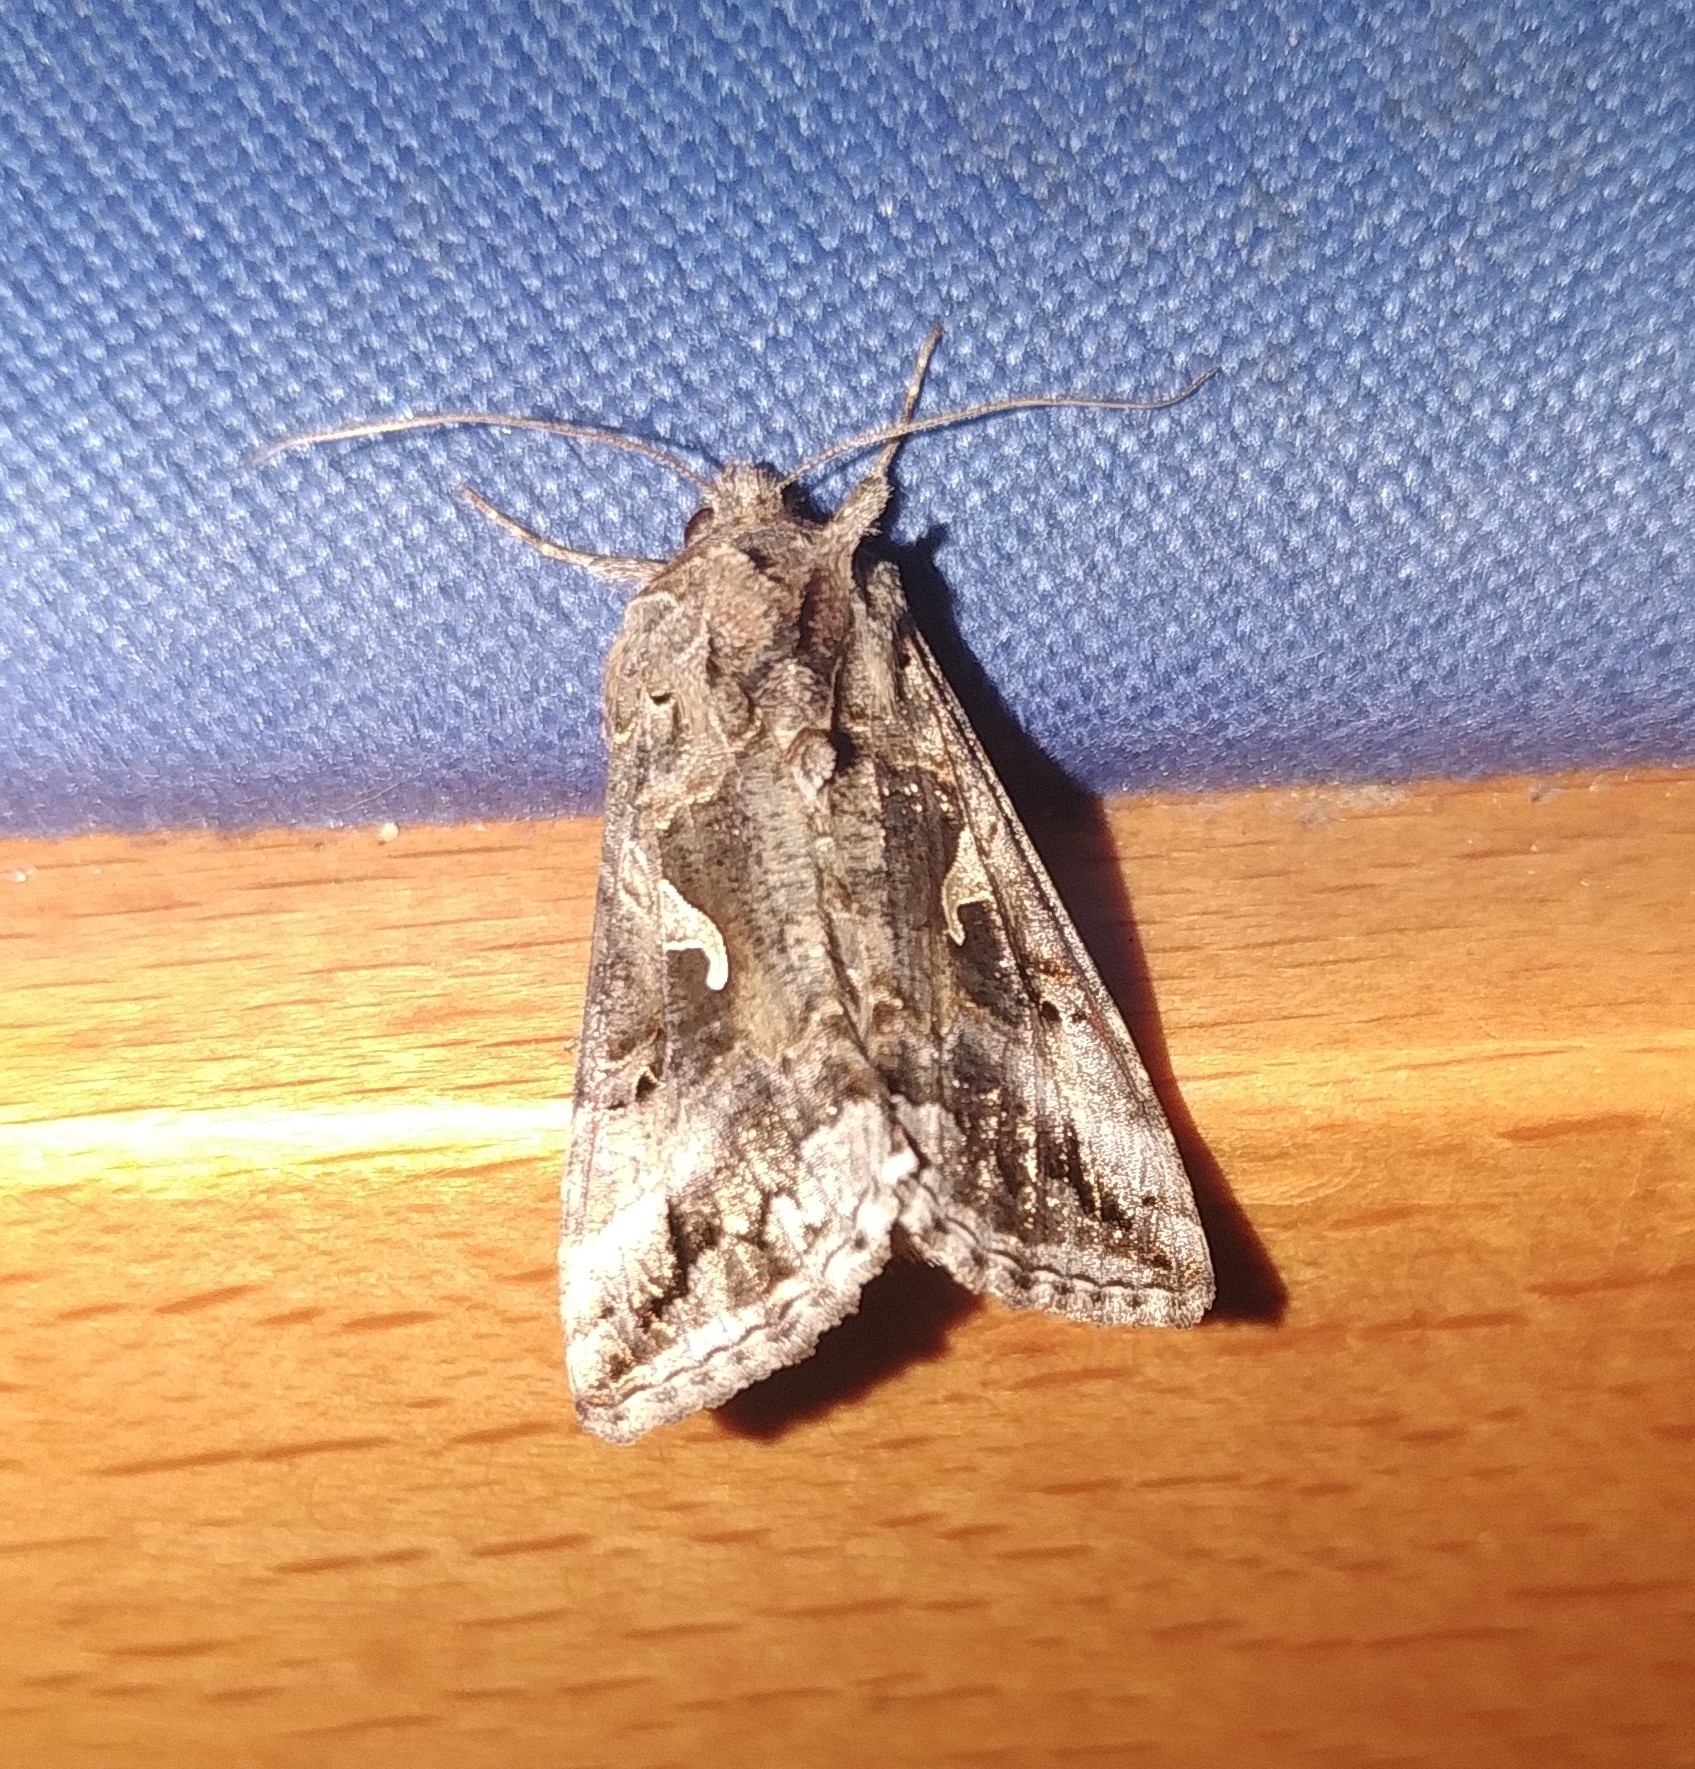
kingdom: Animalia
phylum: Arthropoda
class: Insecta
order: Lepidoptera
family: Noctuidae
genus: Autographa
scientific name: Autographa gamma
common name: Silver y
